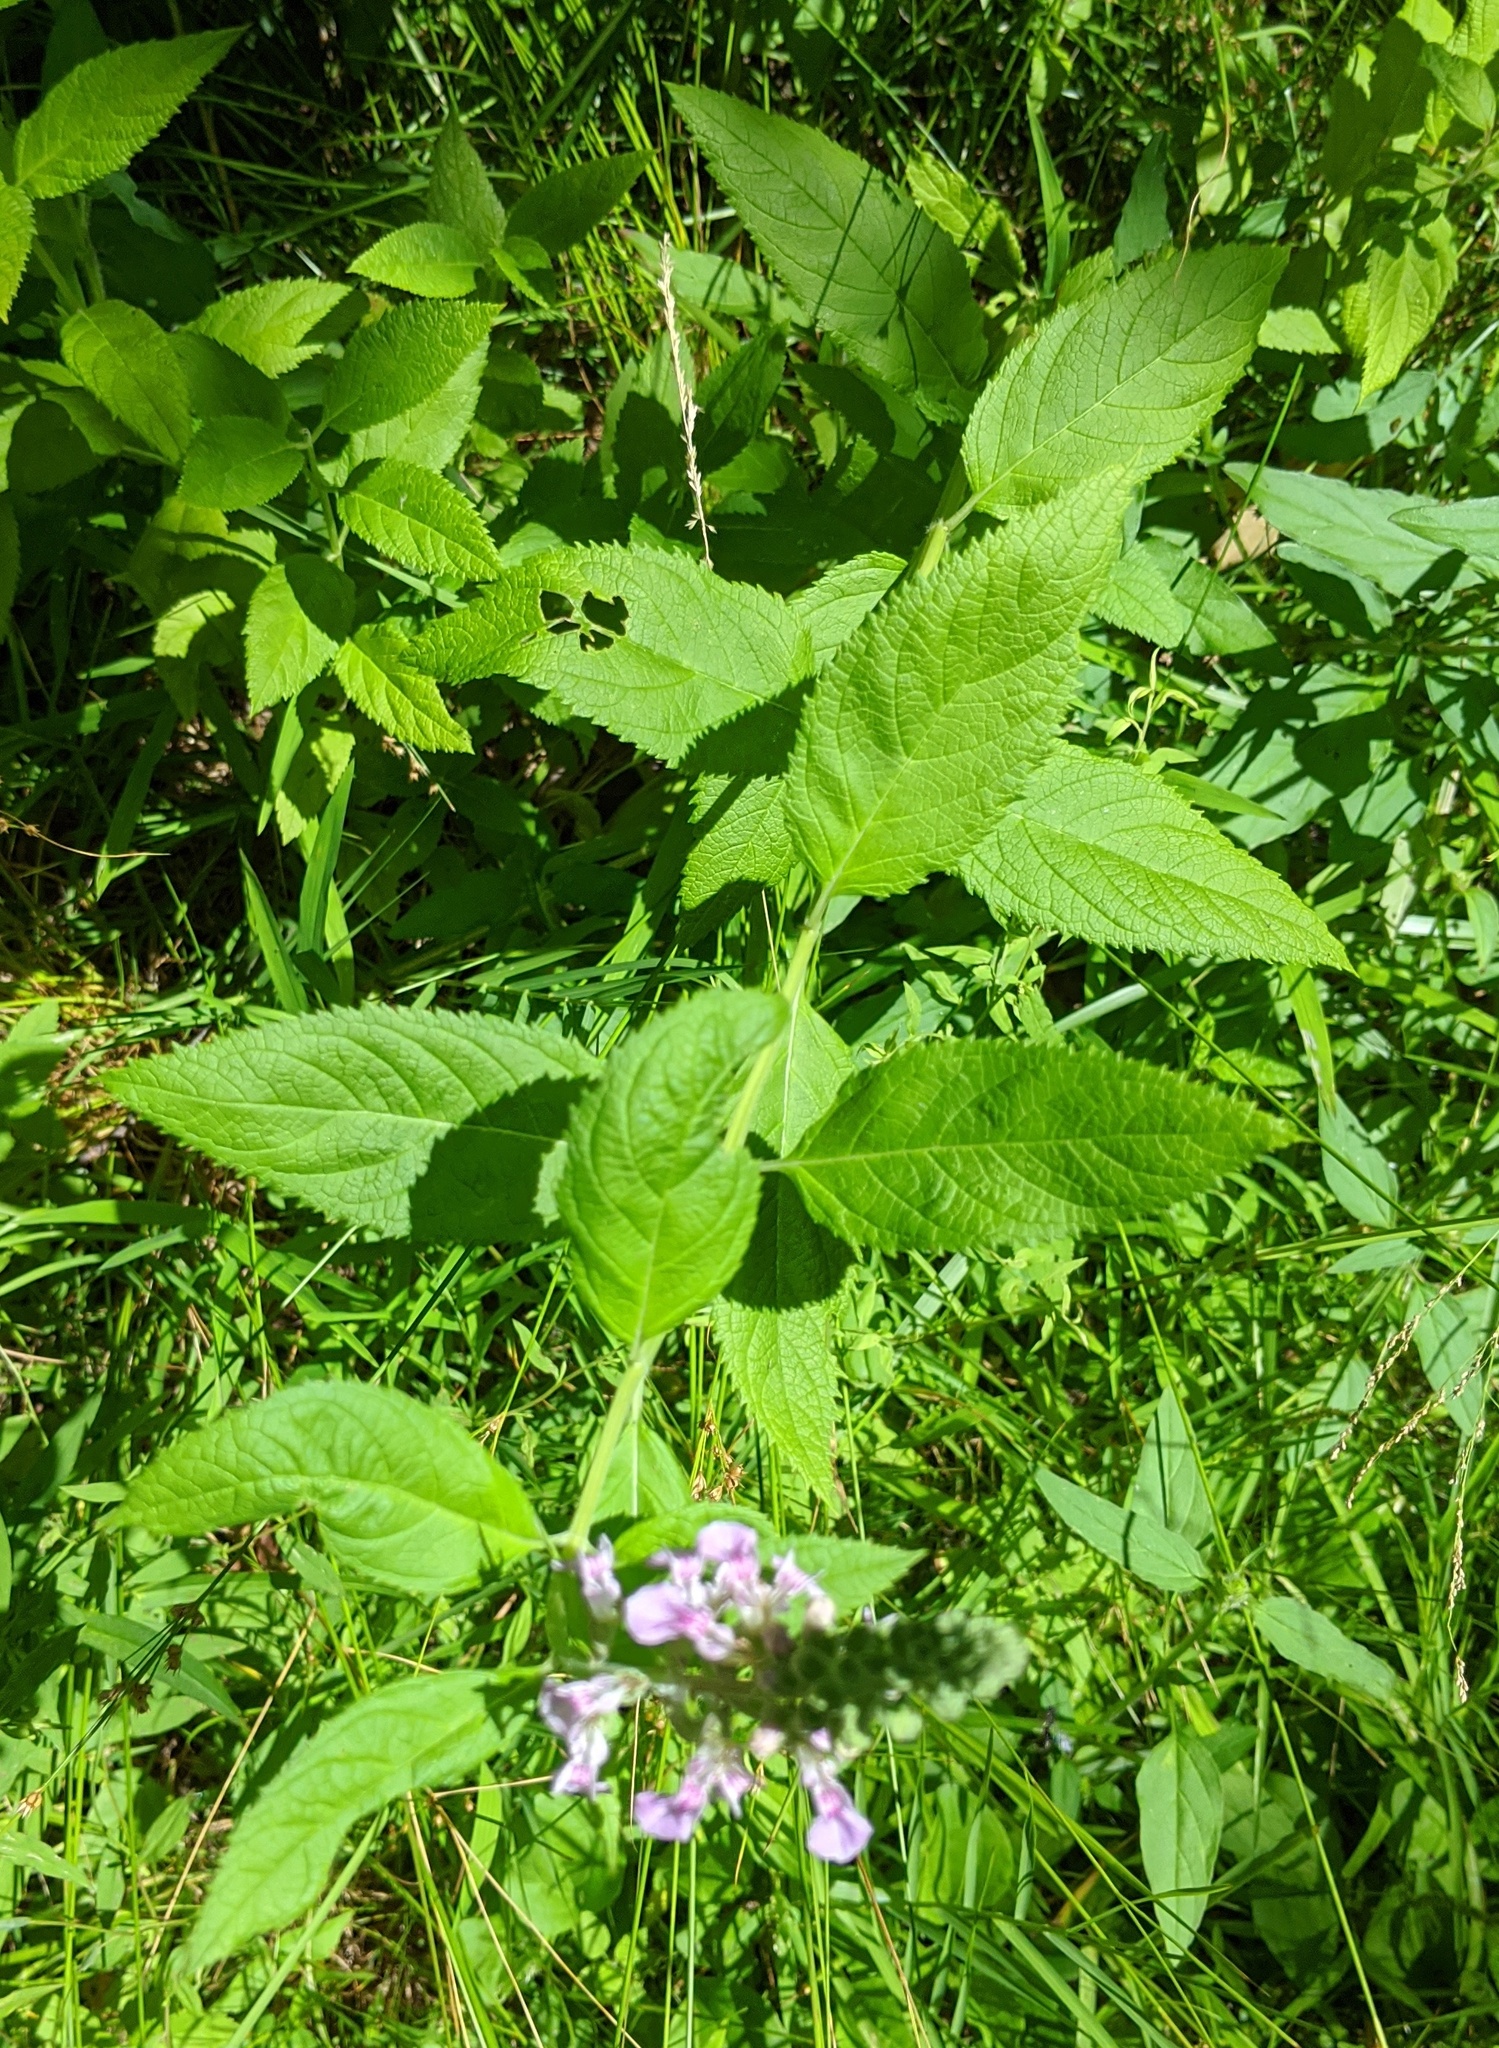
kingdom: Plantae
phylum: Tracheophyta
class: Magnoliopsida
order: Lamiales
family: Lamiaceae
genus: Teucrium
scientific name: Teucrium canadense
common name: American germander
